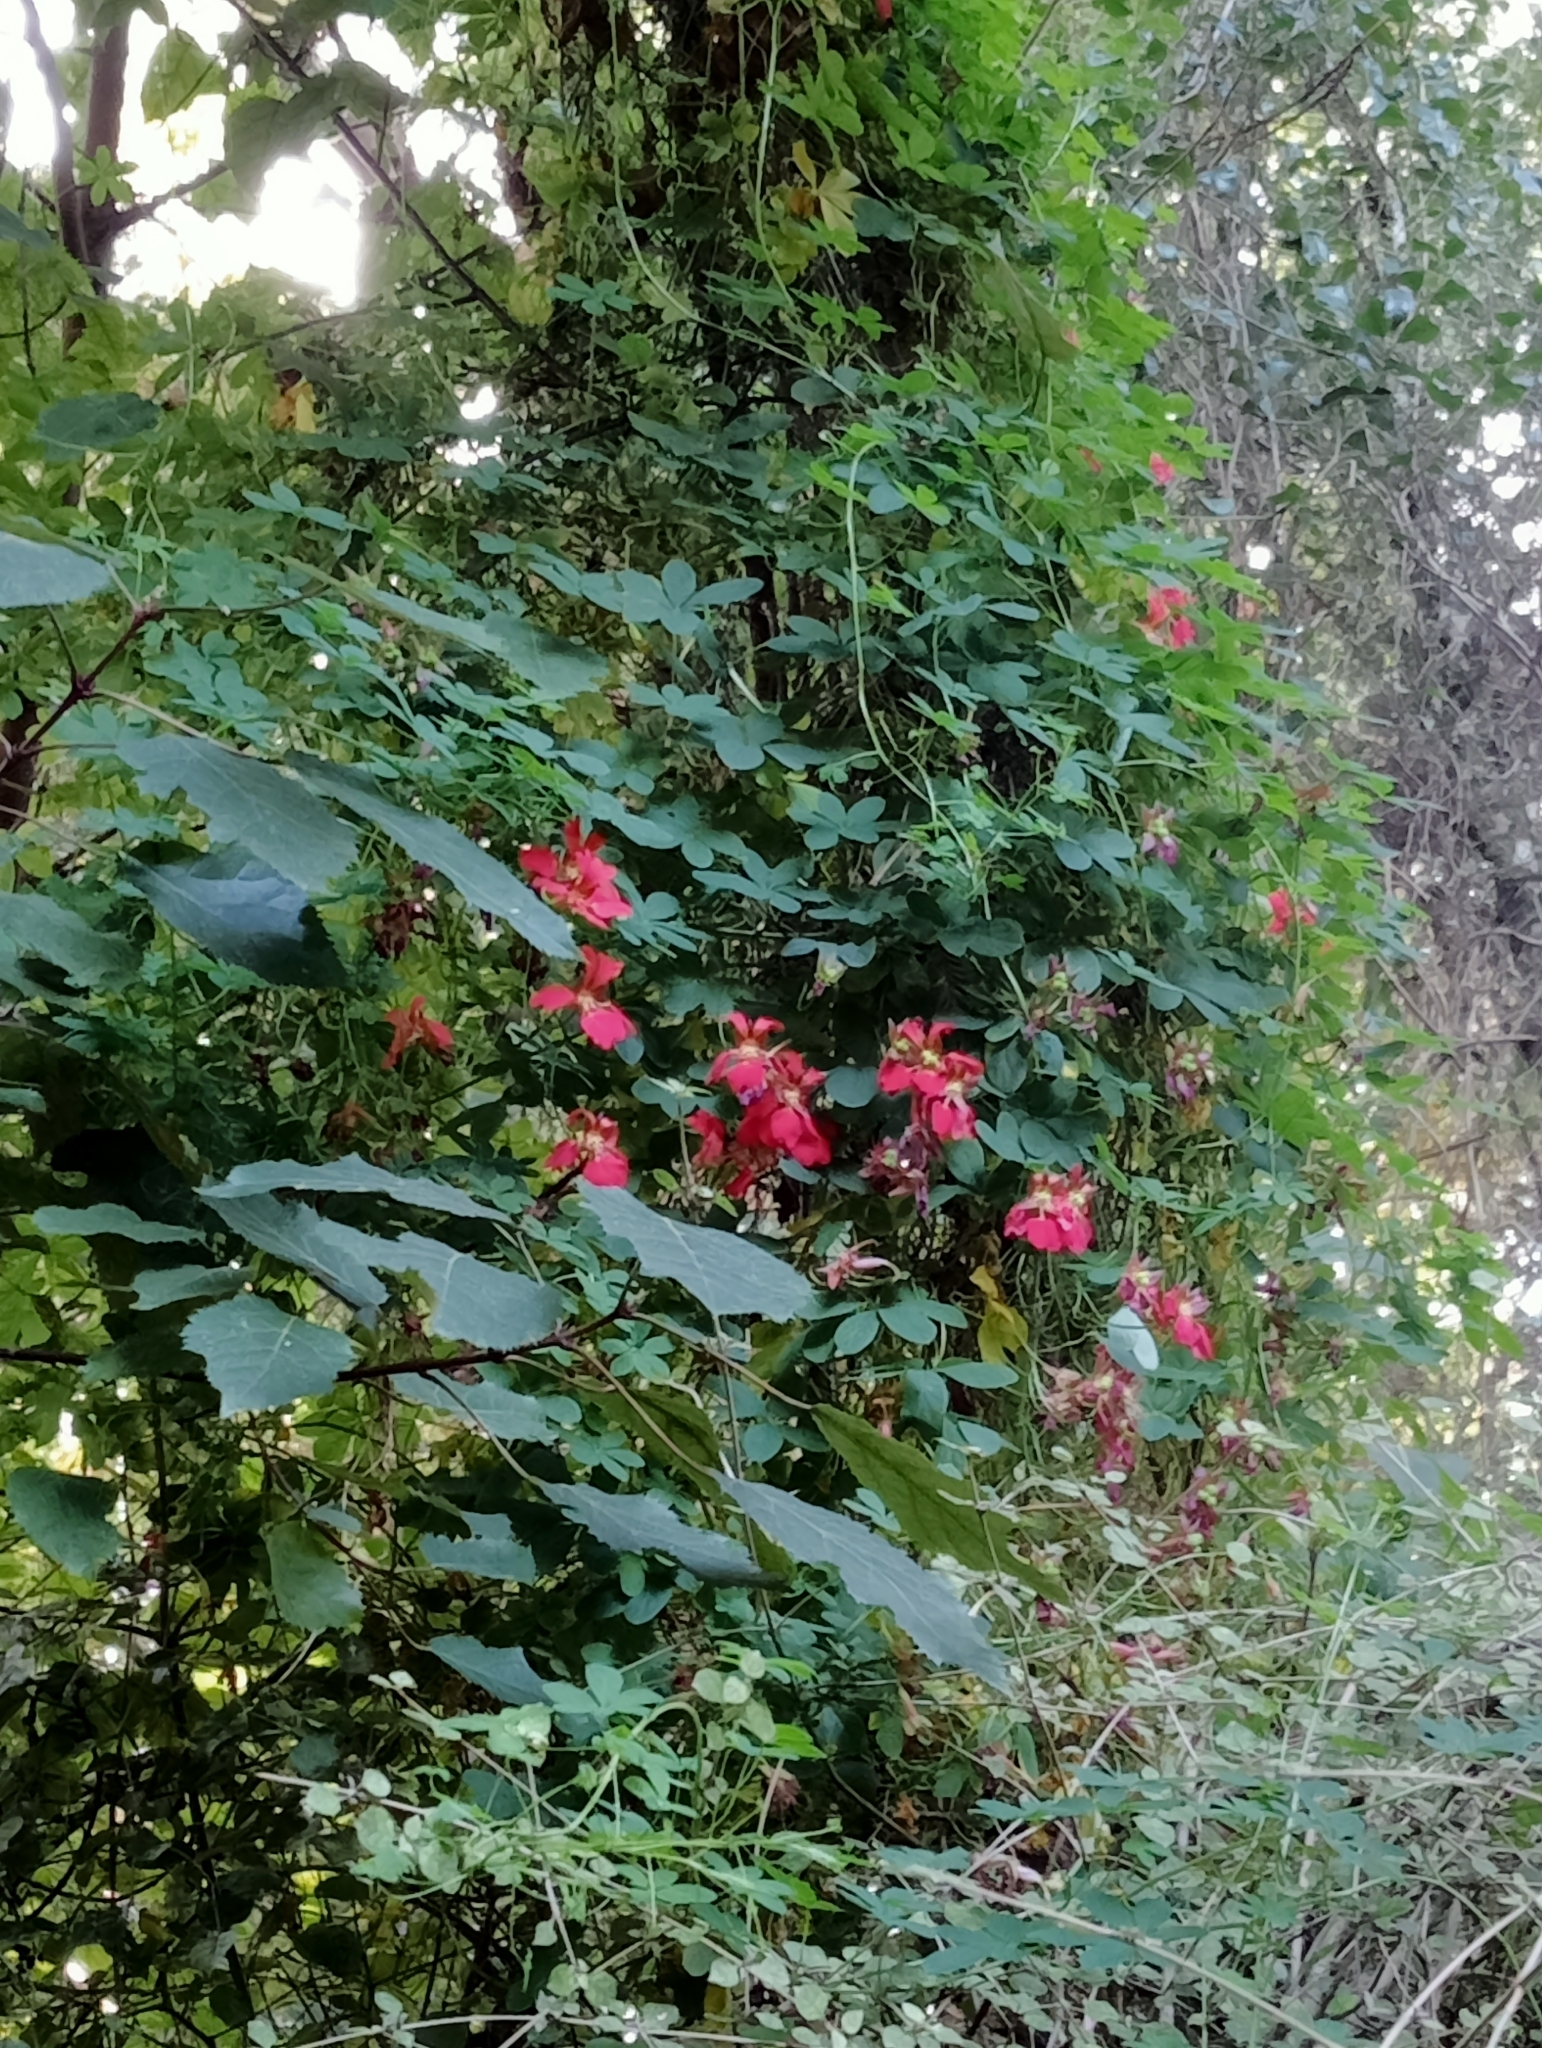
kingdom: Plantae
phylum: Tracheophyta
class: Magnoliopsida
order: Brassicales
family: Tropaeolaceae
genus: Tropaeolum
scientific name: Tropaeolum speciosum
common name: Flame nasturtium
